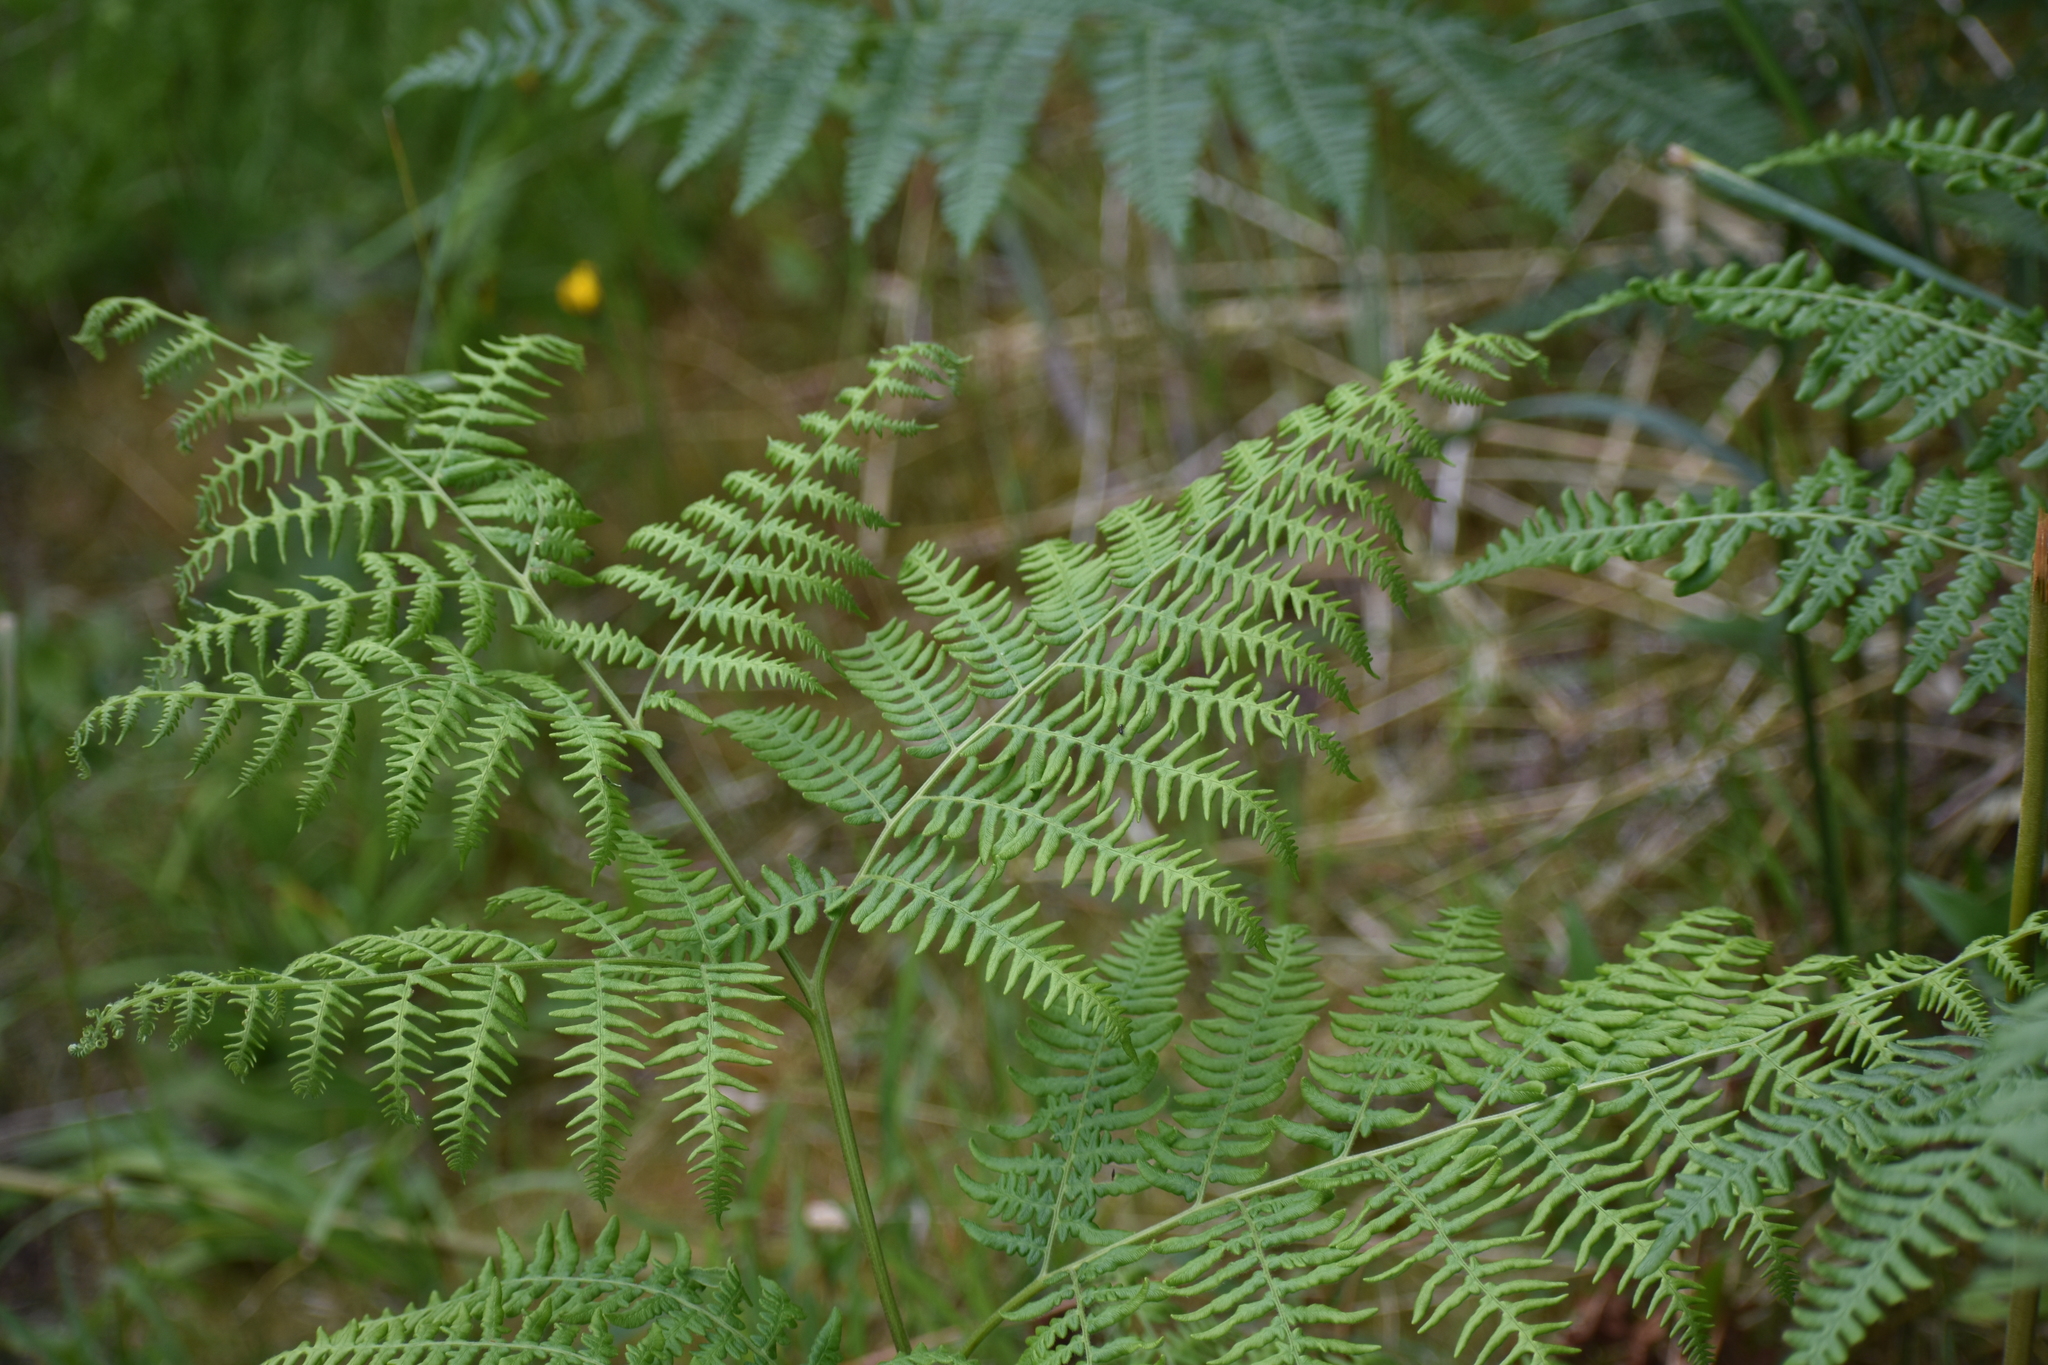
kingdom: Plantae
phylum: Tracheophyta
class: Polypodiopsida
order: Polypodiales
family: Dennstaedtiaceae
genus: Pteridium
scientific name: Pteridium aquilinum
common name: Bracken
